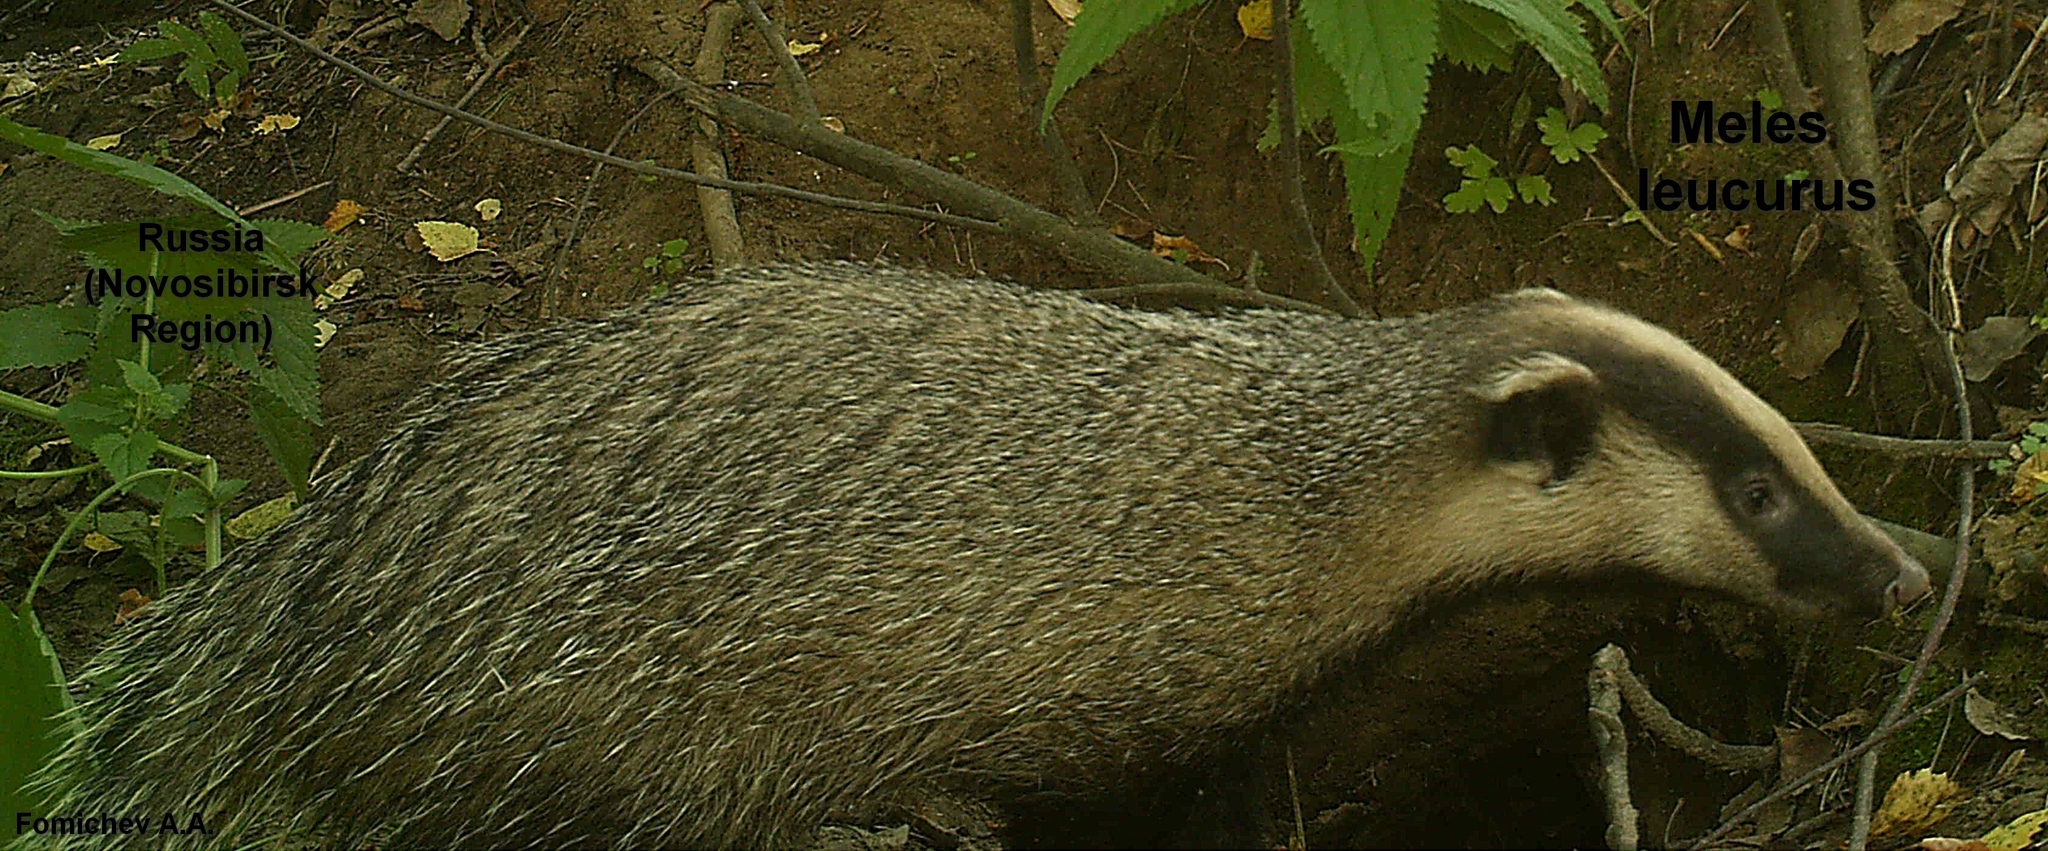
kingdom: Animalia
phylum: Chordata
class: Mammalia
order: Carnivora
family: Mustelidae
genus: Meles
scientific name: Meles leucurus
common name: Asian badger
